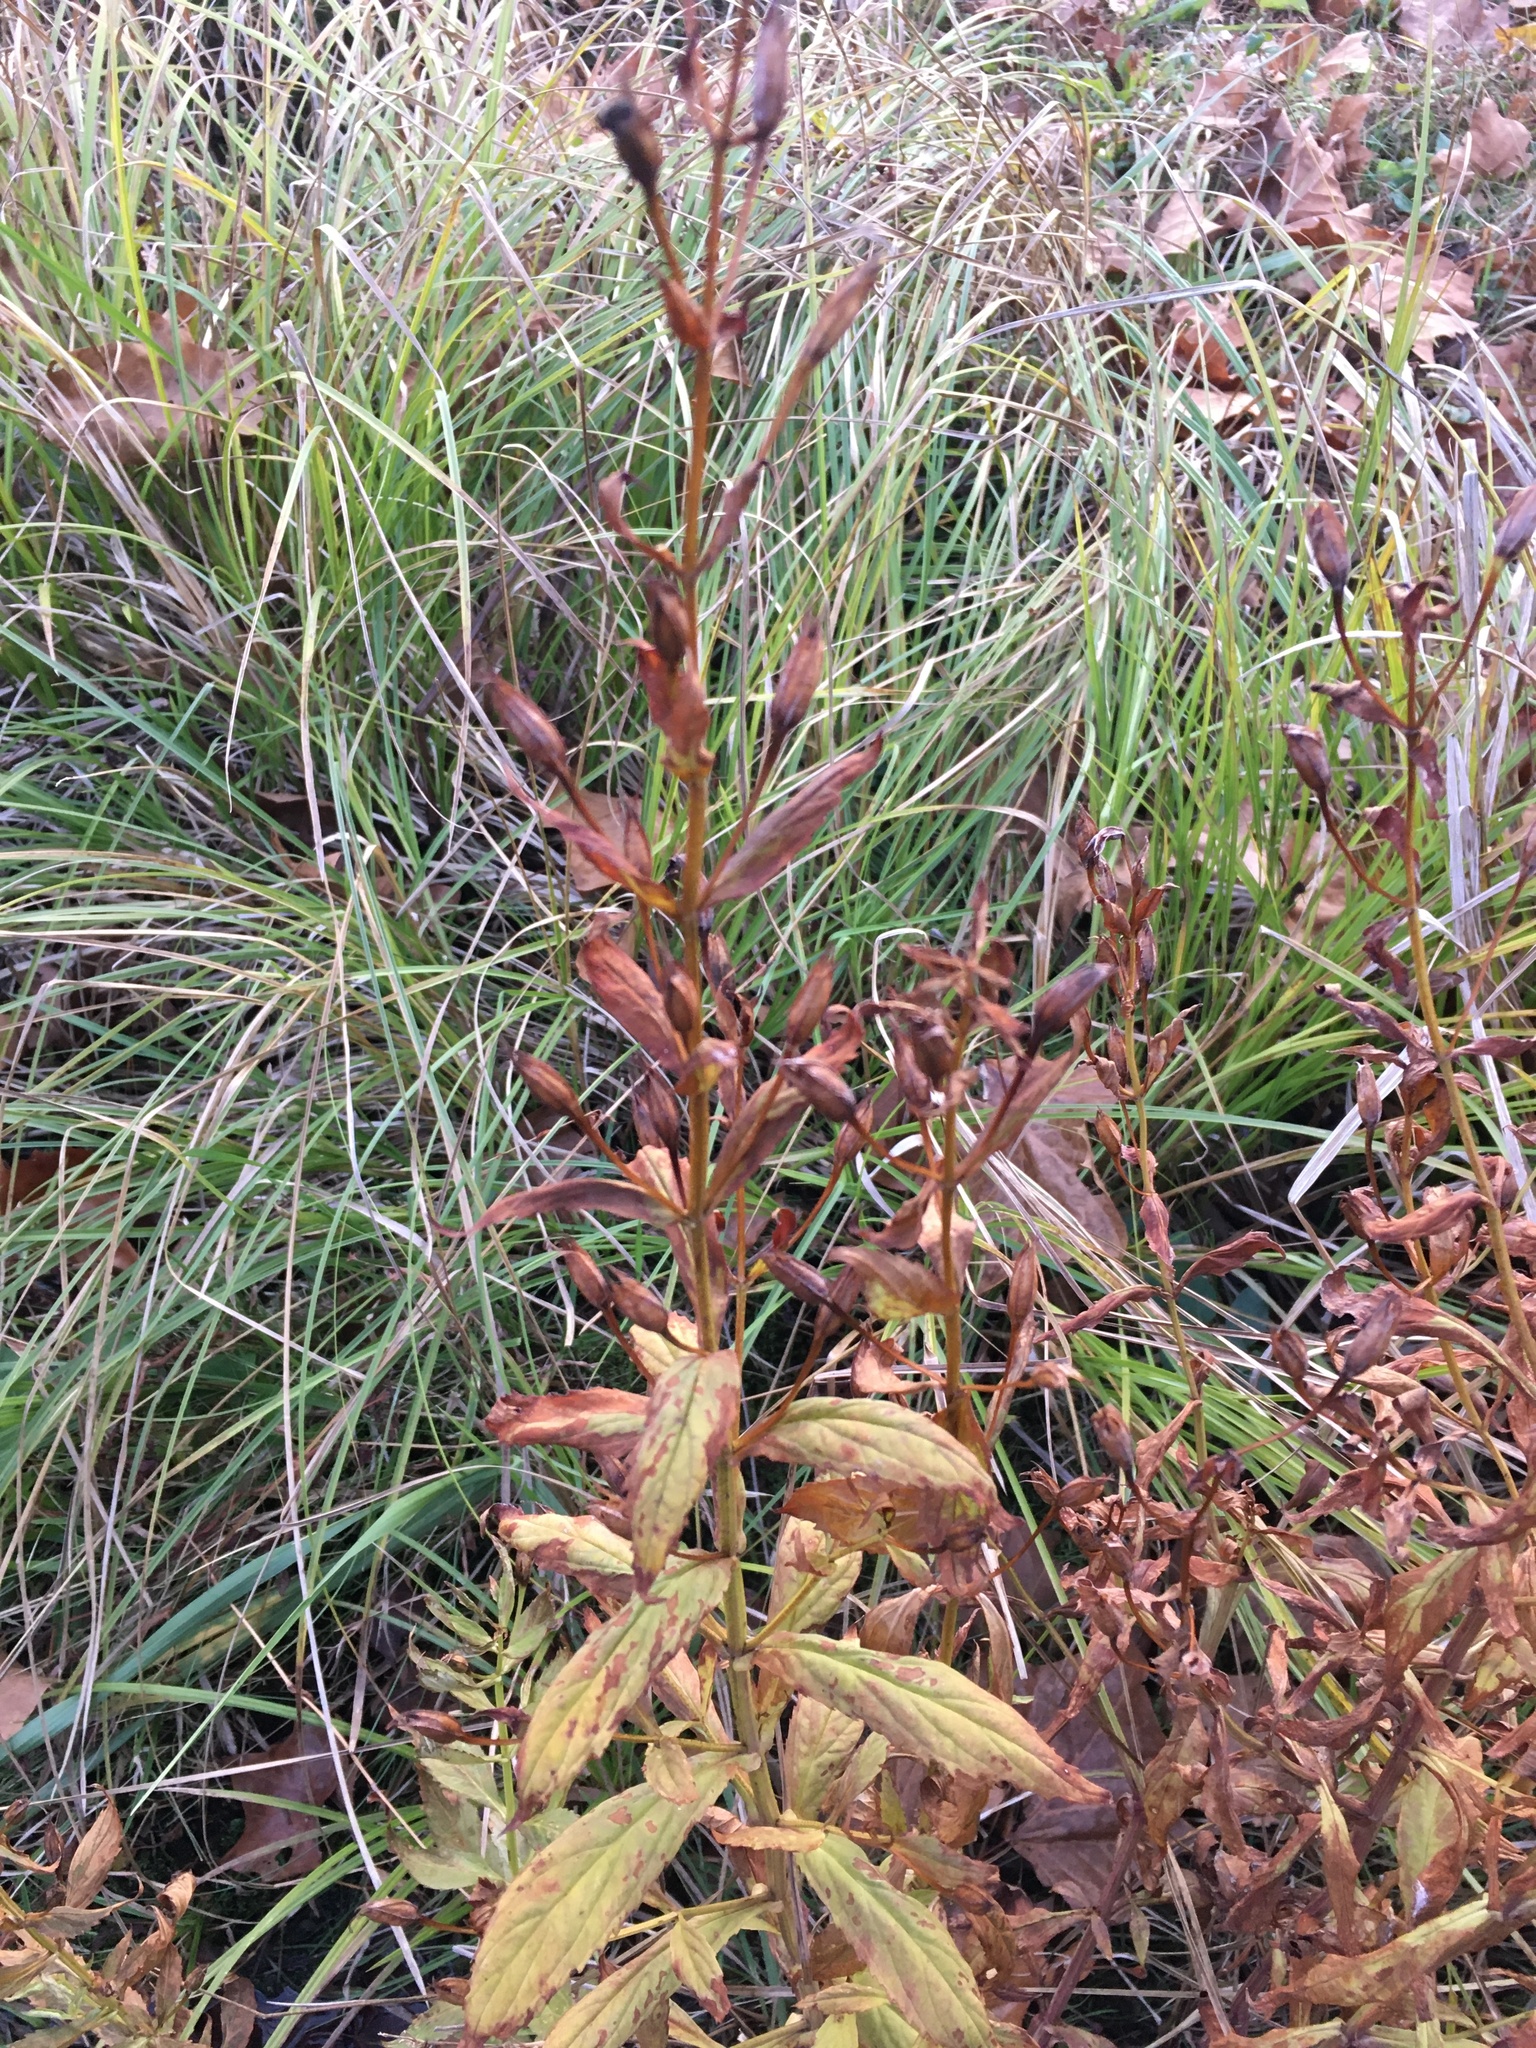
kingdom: Plantae
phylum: Tracheophyta
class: Magnoliopsida
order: Lamiales
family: Phrymaceae
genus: Mimulus
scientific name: Mimulus ringens
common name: Allegheny monkeyflower
